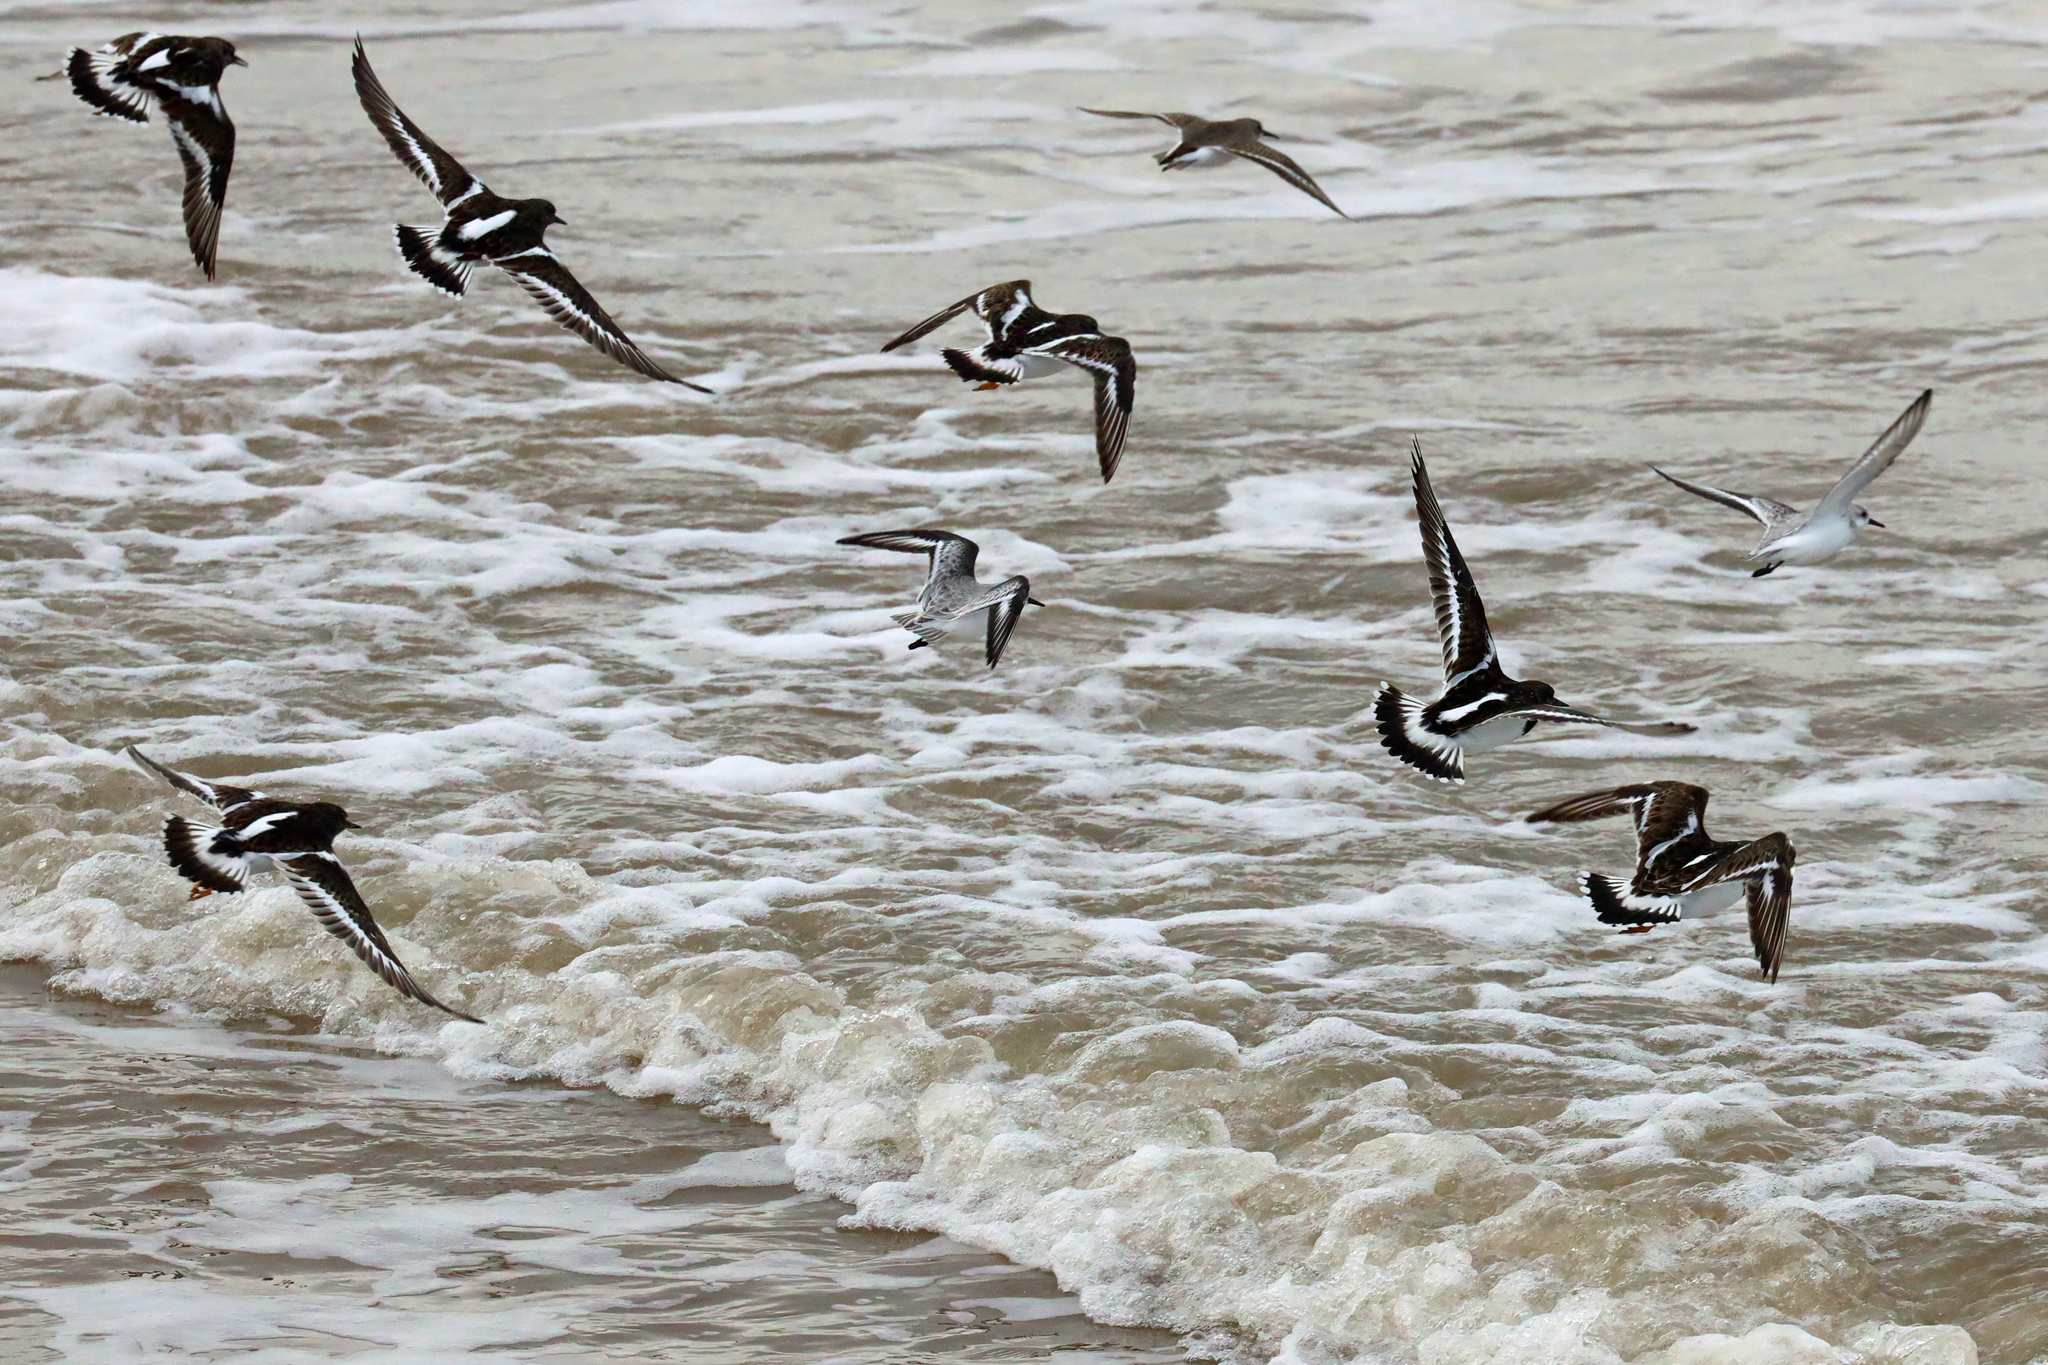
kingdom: Animalia
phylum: Chordata
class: Aves
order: Charadriiformes
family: Scolopacidae
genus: Calidris
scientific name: Calidris alpina
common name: Dunlin
